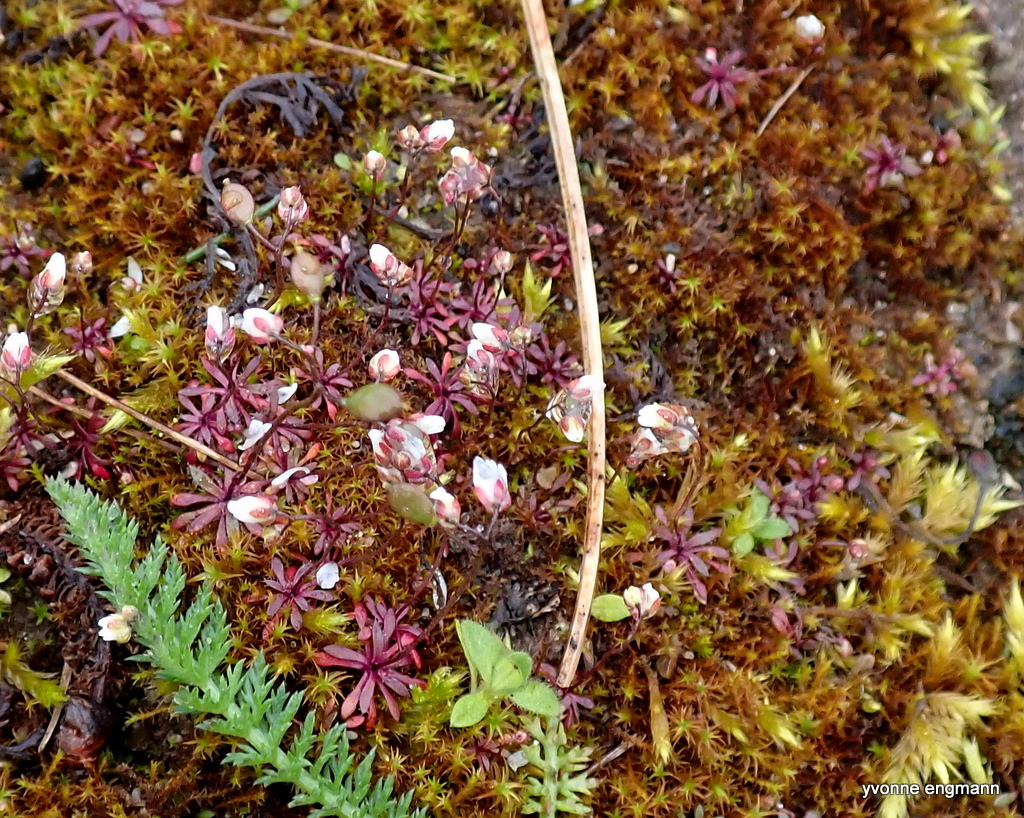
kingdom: Plantae
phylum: Tracheophyta
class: Magnoliopsida
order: Brassicales
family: Brassicaceae
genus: Draba
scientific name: Draba verna
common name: Spring draba
